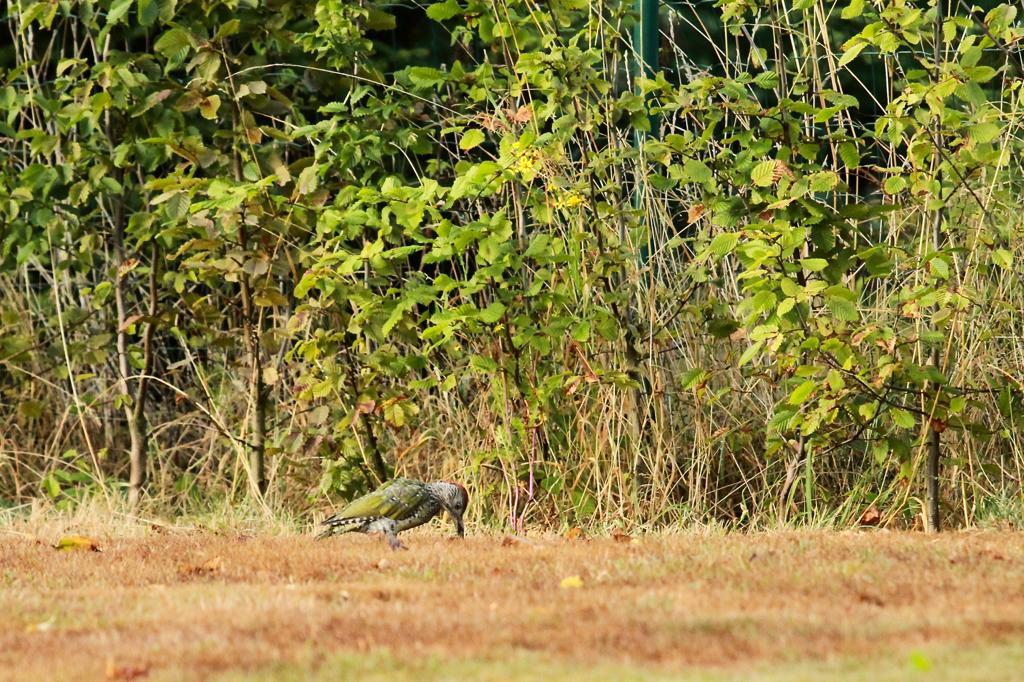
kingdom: Animalia
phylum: Chordata
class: Aves
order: Piciformes
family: Picidae
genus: Picus
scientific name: Picus viridis
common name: European green woodpecker
